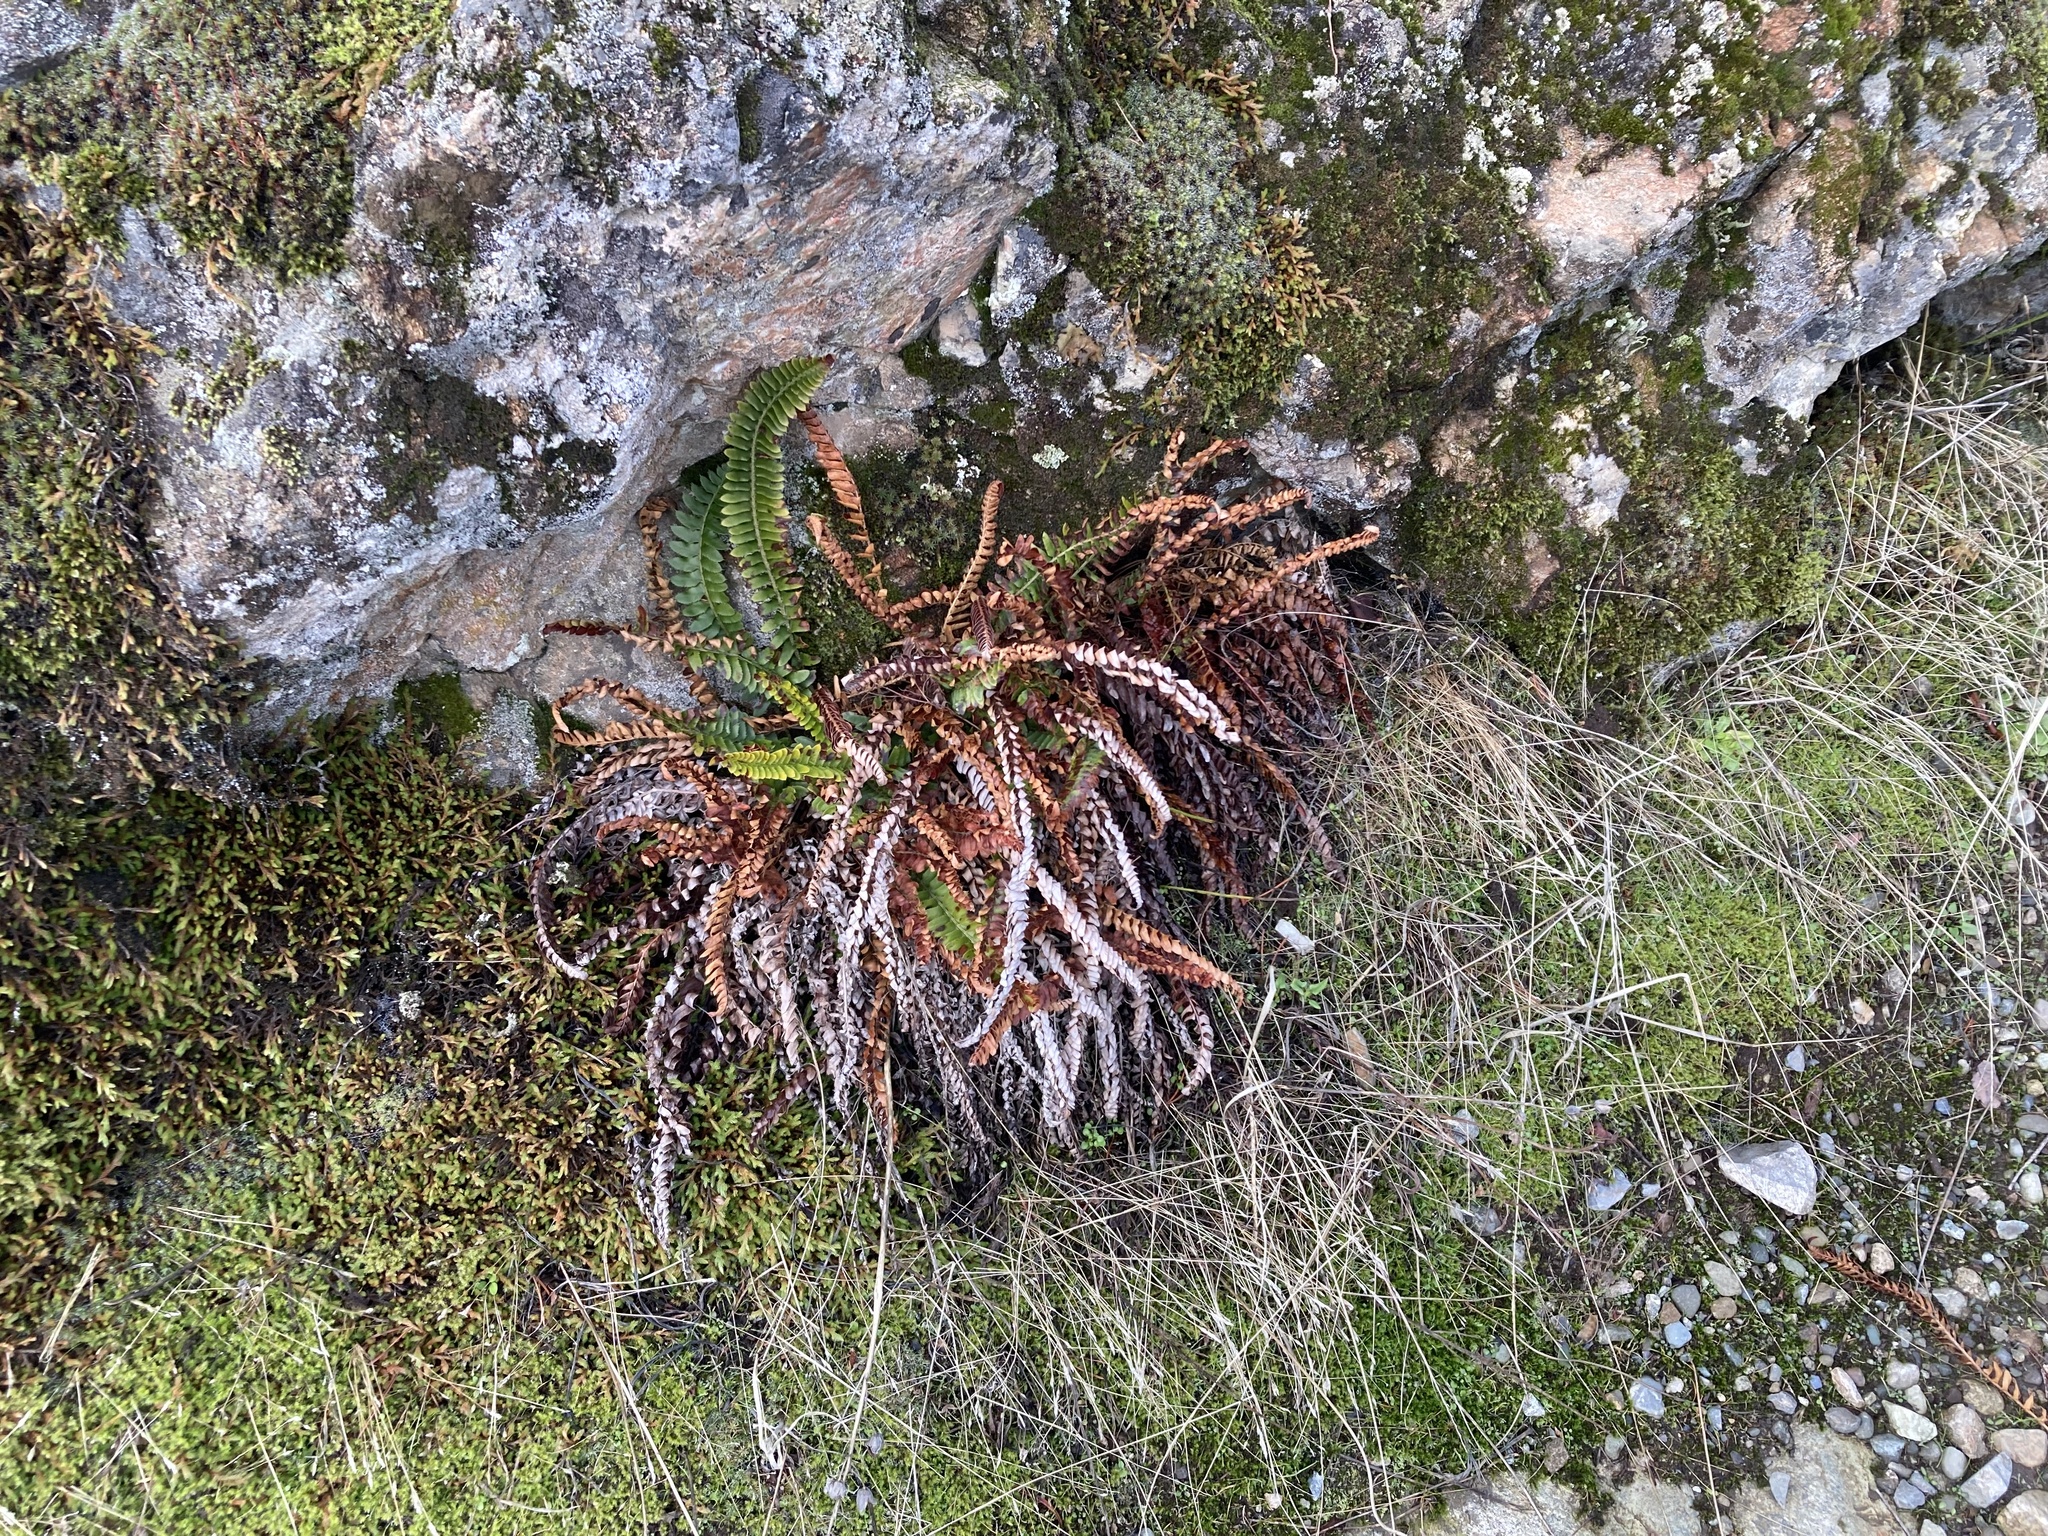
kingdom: Plantae
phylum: Tracheophyta
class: Polypodiopsida
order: Polypodiales
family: Dryopteridaceae
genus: Polystichum
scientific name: Polystichum imbricans
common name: Dwarf western sword fern
